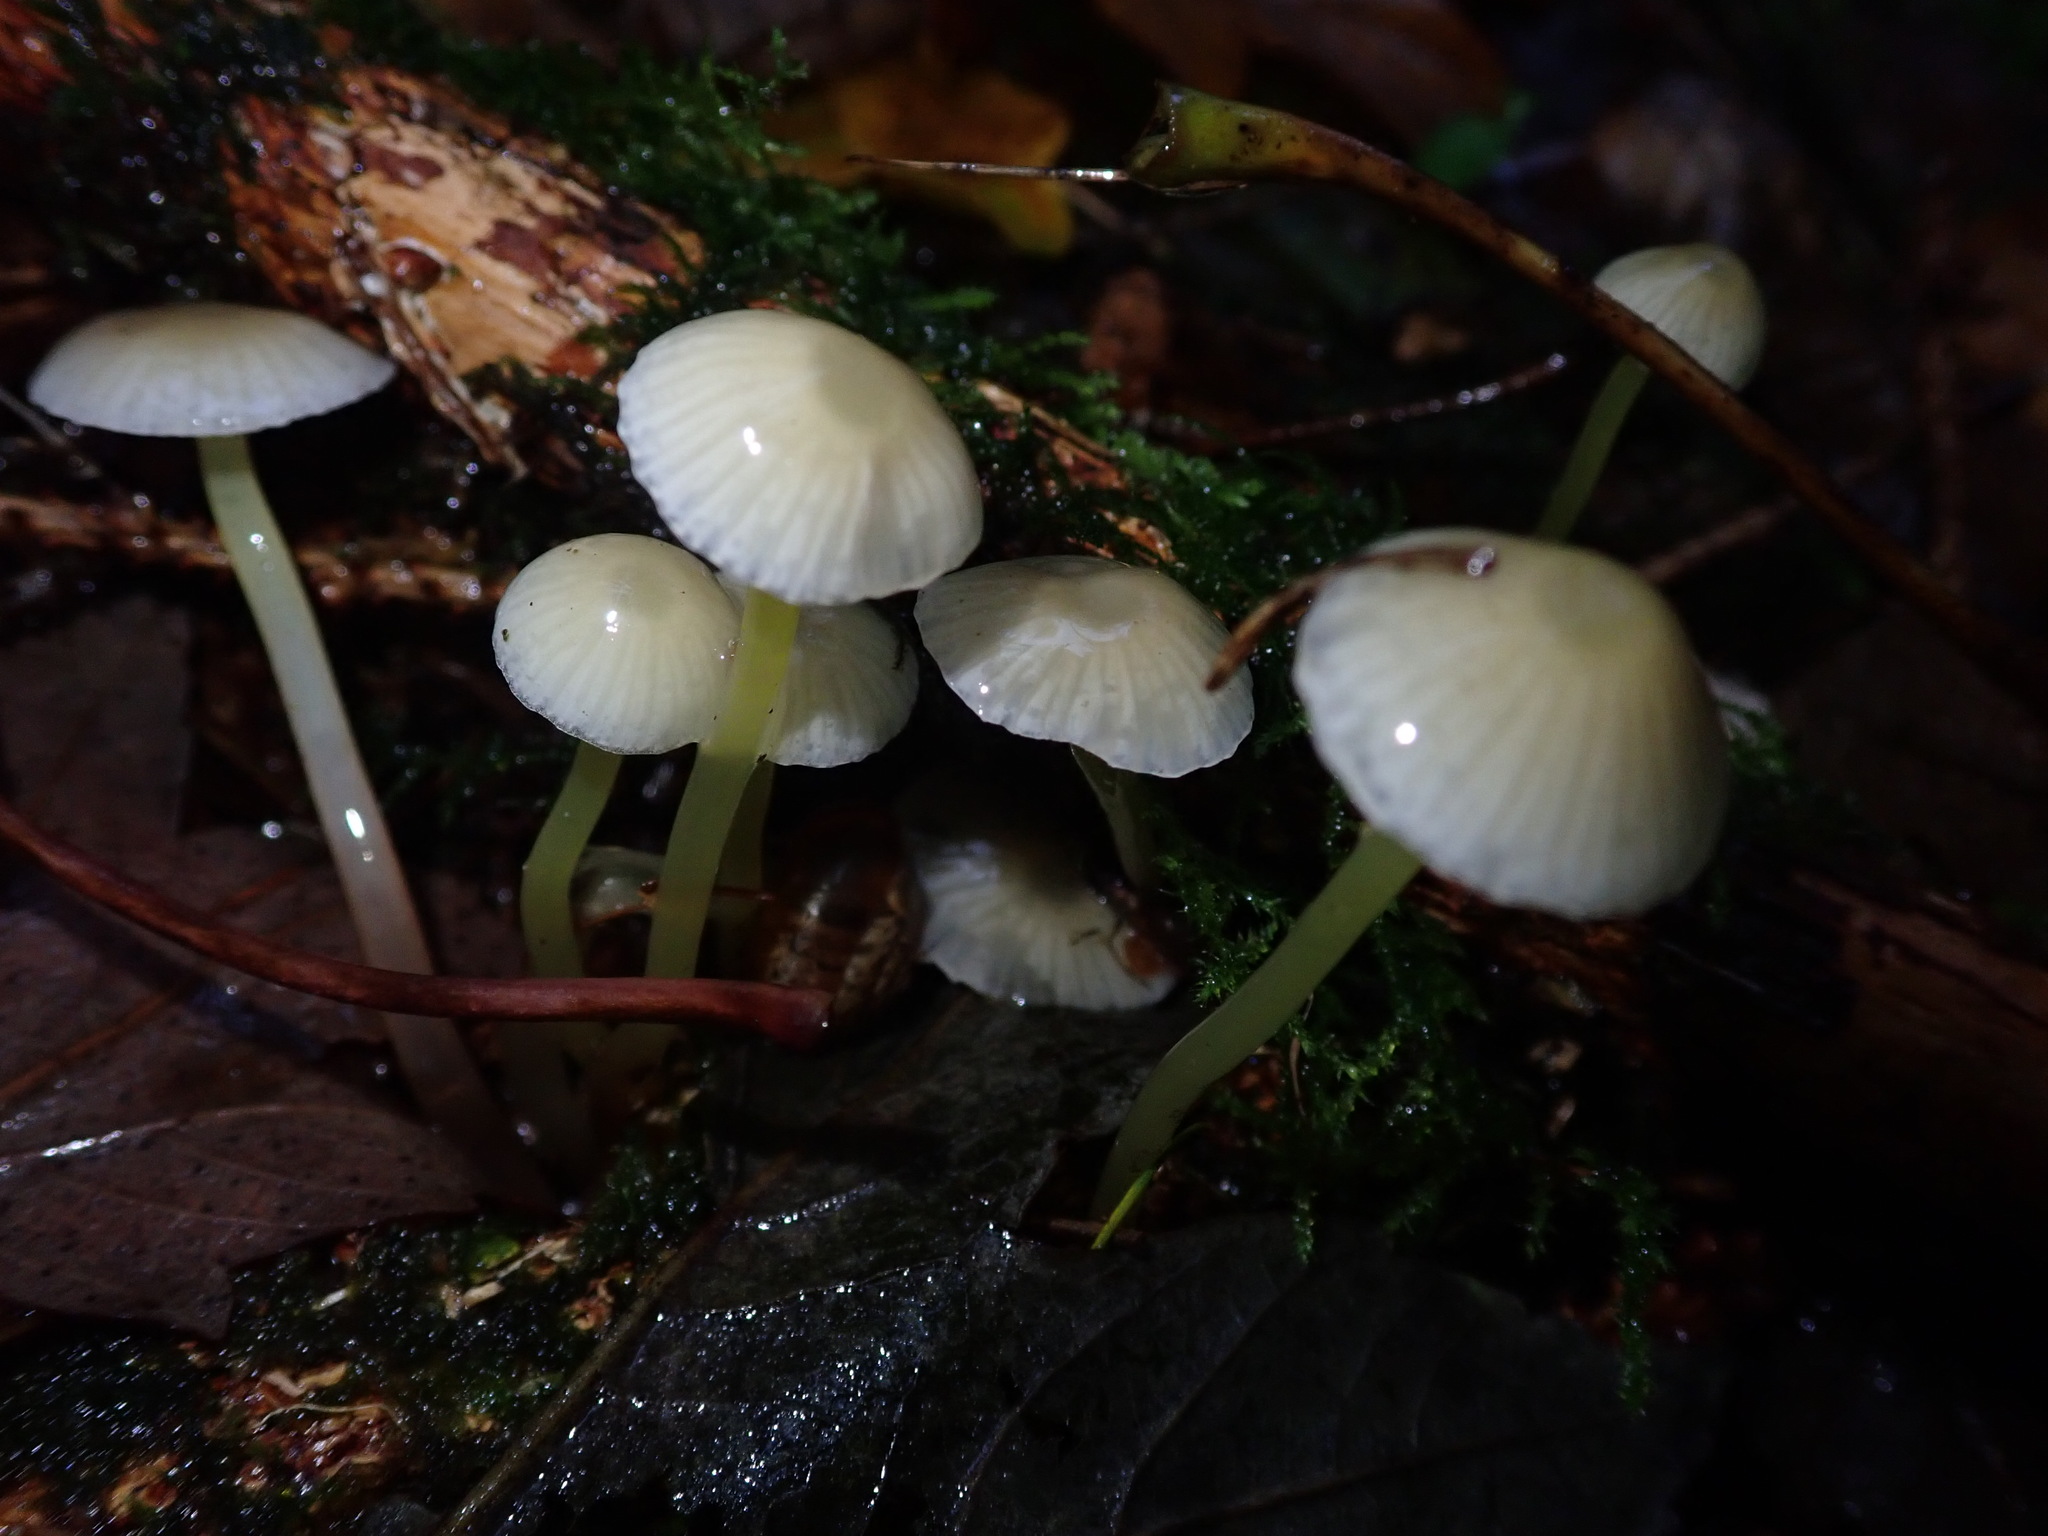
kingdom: Fungi
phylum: Basidiomycota
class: Agaricomycetes
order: Agaricales
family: Mycenaceae
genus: Mycena
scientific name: Mycena epipterygia
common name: Yellowleg bonnet
